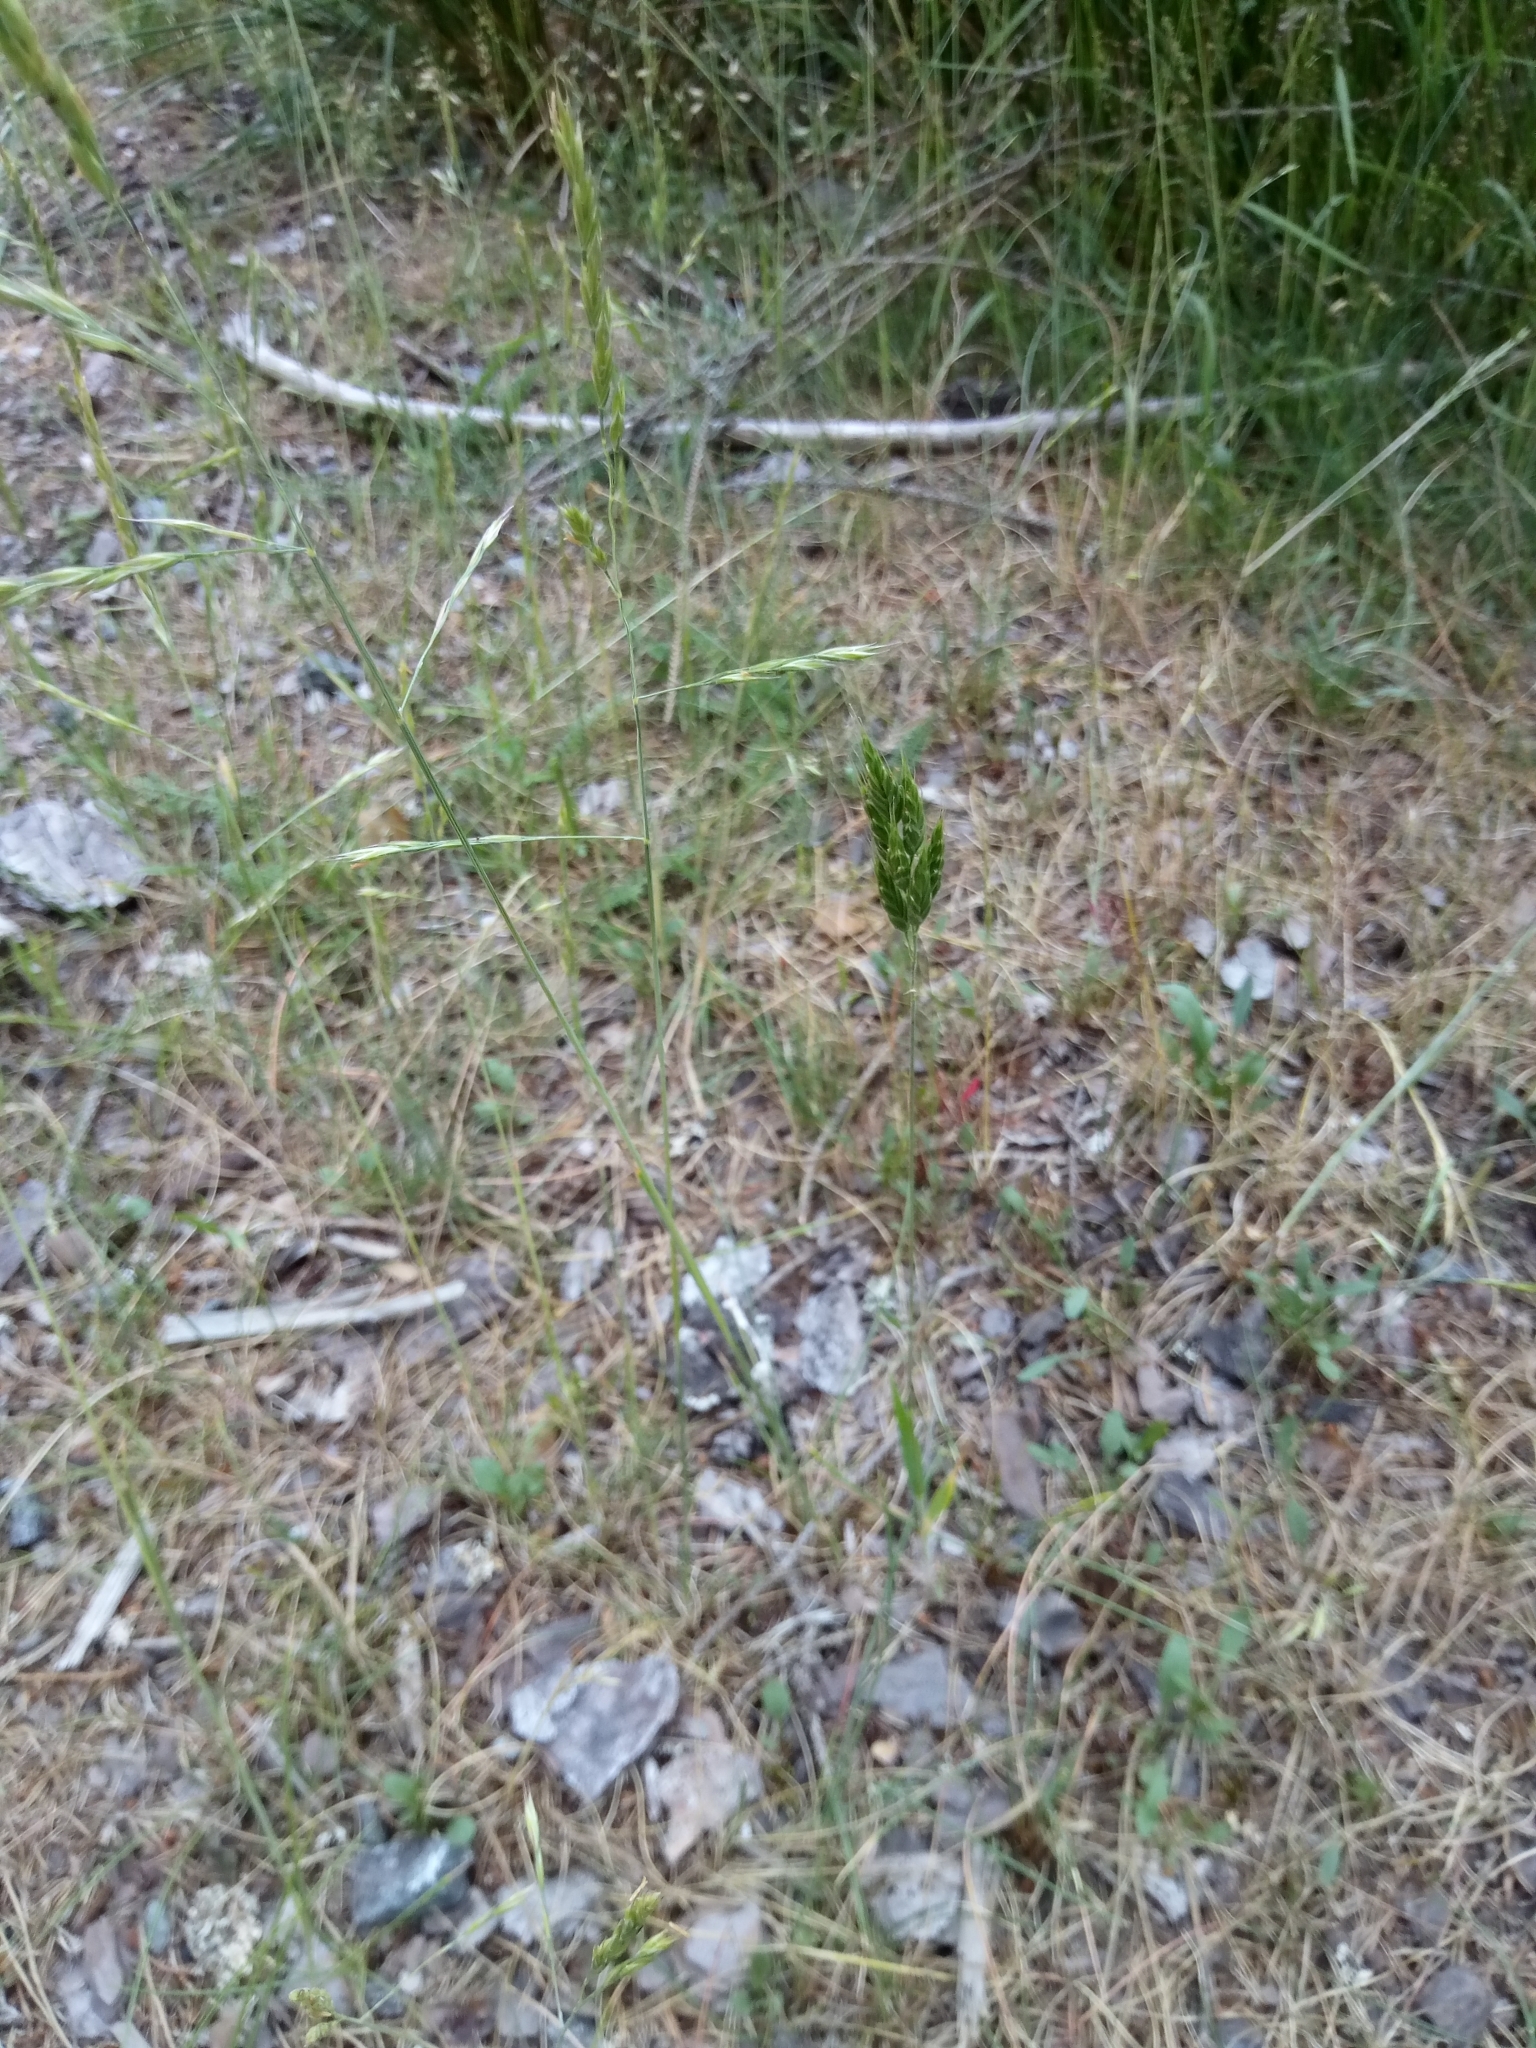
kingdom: Plantae
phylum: Tracheophyta
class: Liliopsida
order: Poales
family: Poaceae
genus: Bromus
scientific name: Bromus hordeaceus
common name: Soft brome
